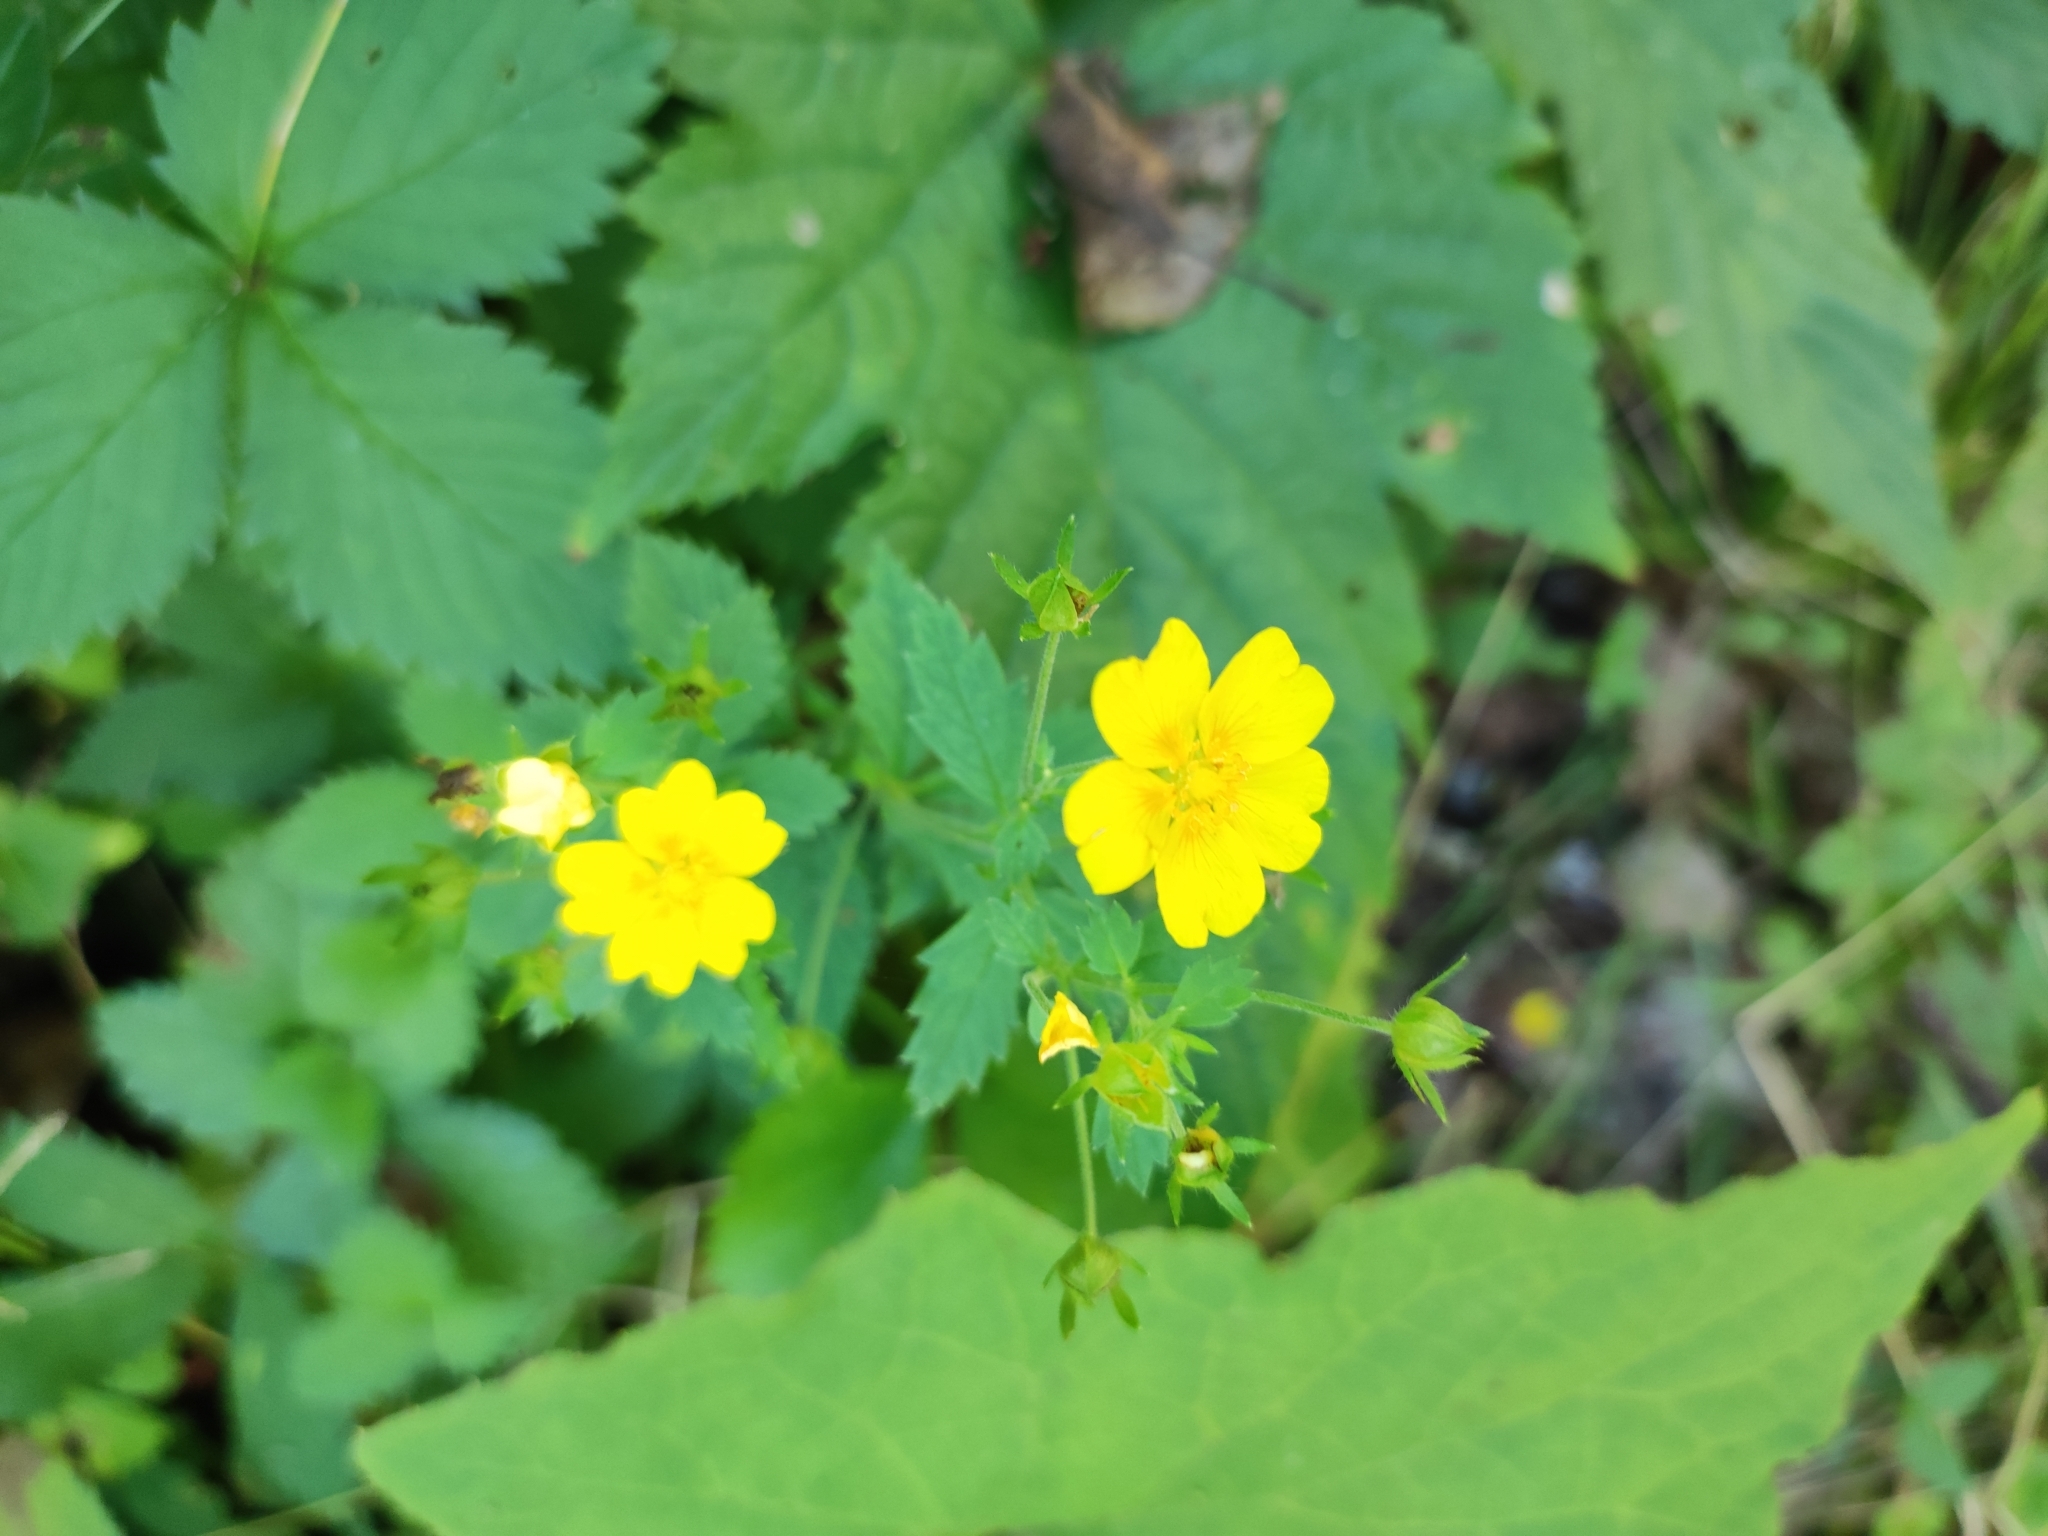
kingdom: Plantae
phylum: Tracheophyta
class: Magnoliopsida
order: Rosales
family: Rosaceae
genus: Potentilla
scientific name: Potentilla fragarioides
